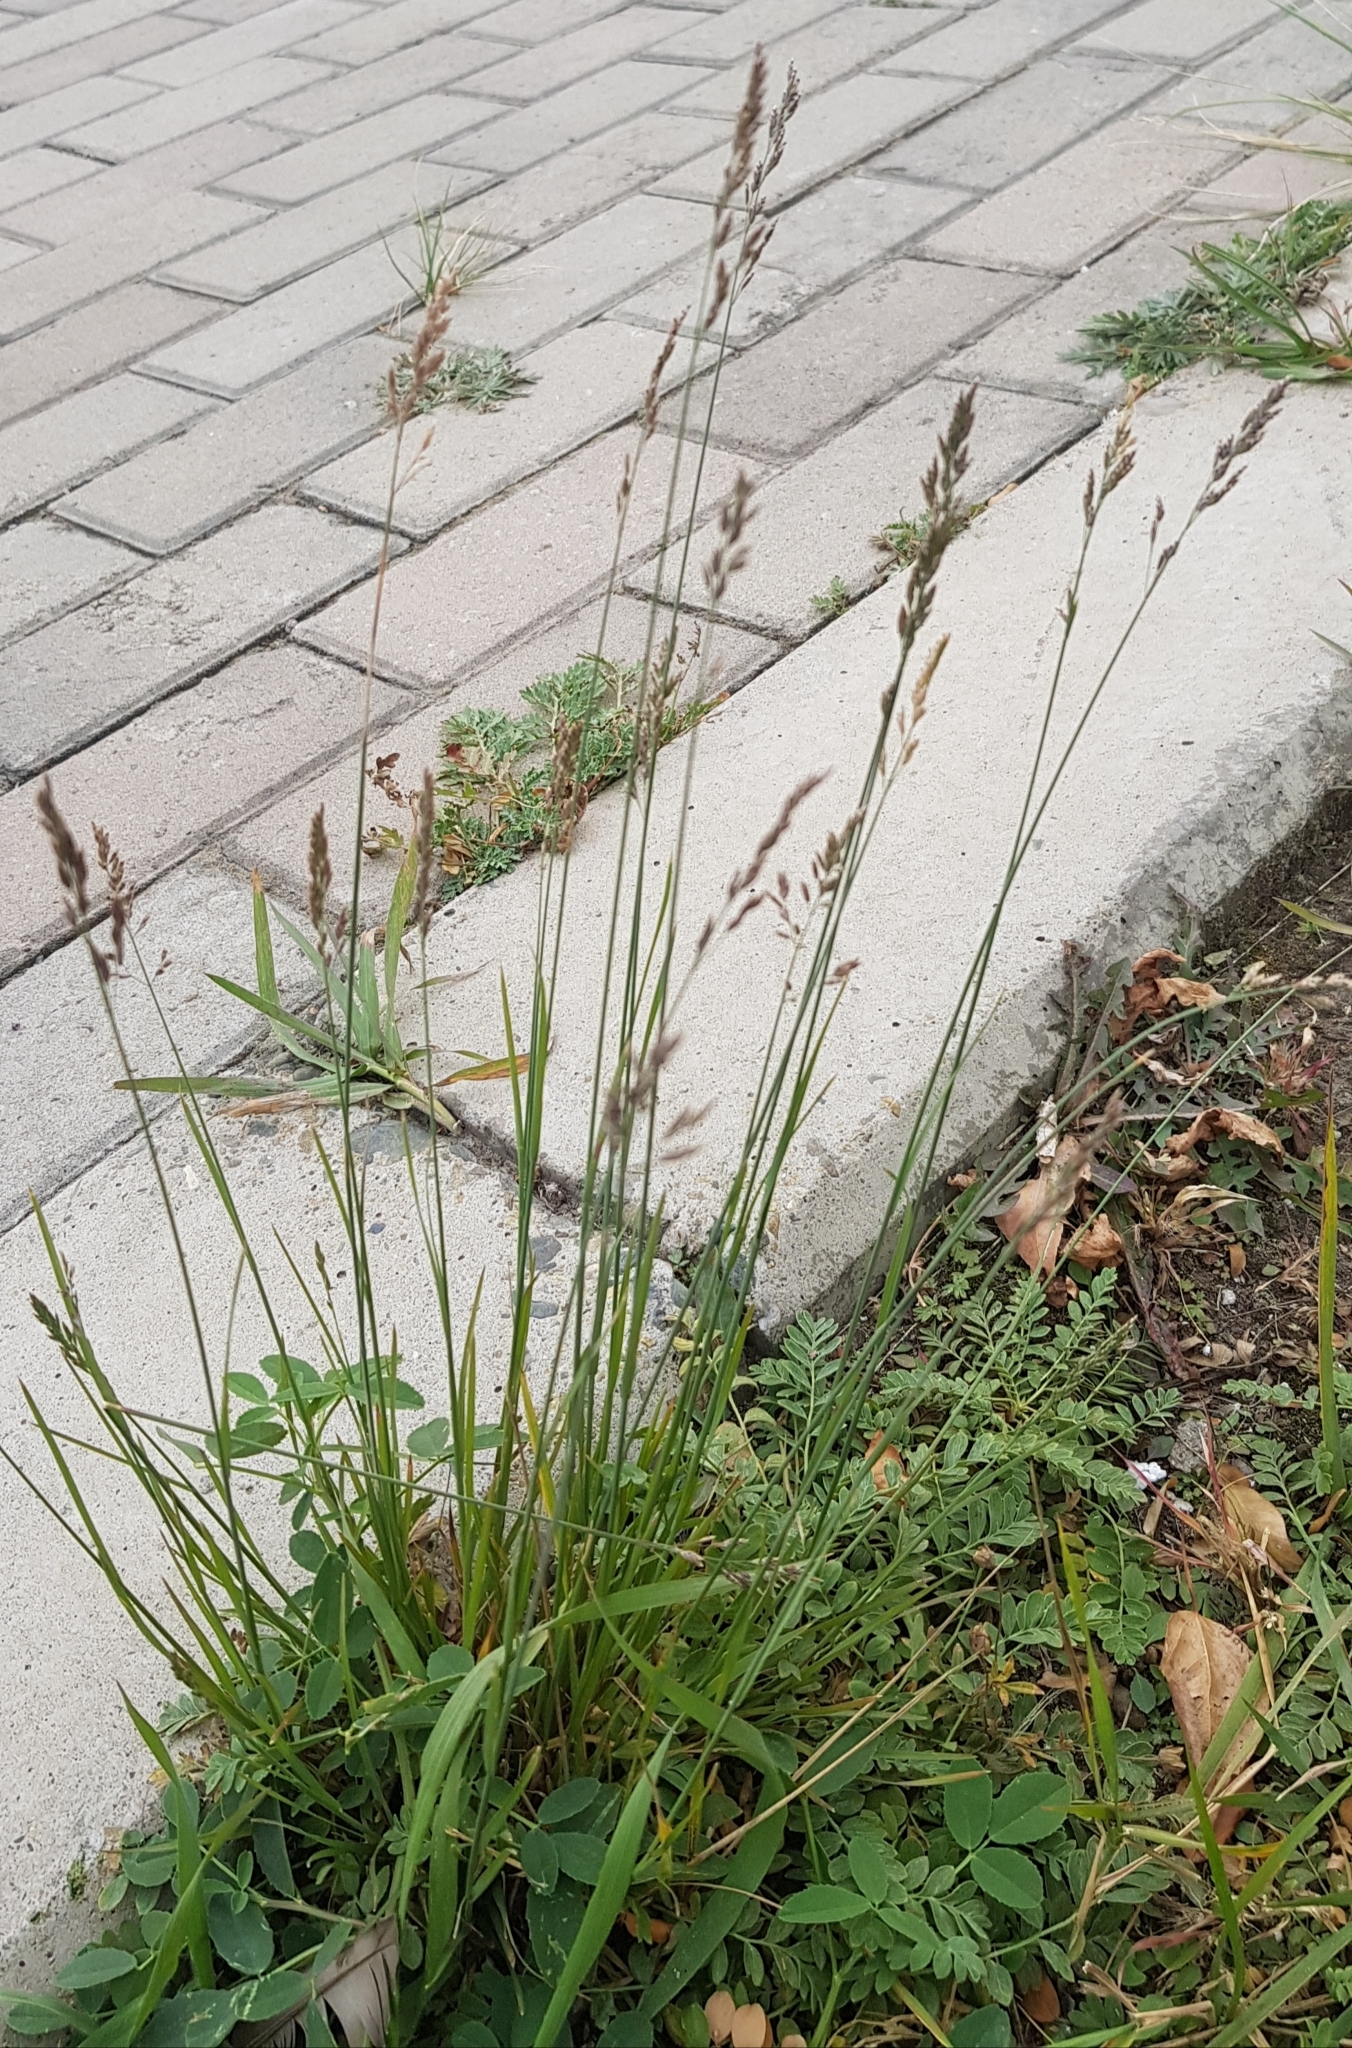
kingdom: Plantae
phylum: Tracheophyta
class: Liliopsida
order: Poales
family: Poaceae
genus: Festuca
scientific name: Festuca rubra
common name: Red fescue
